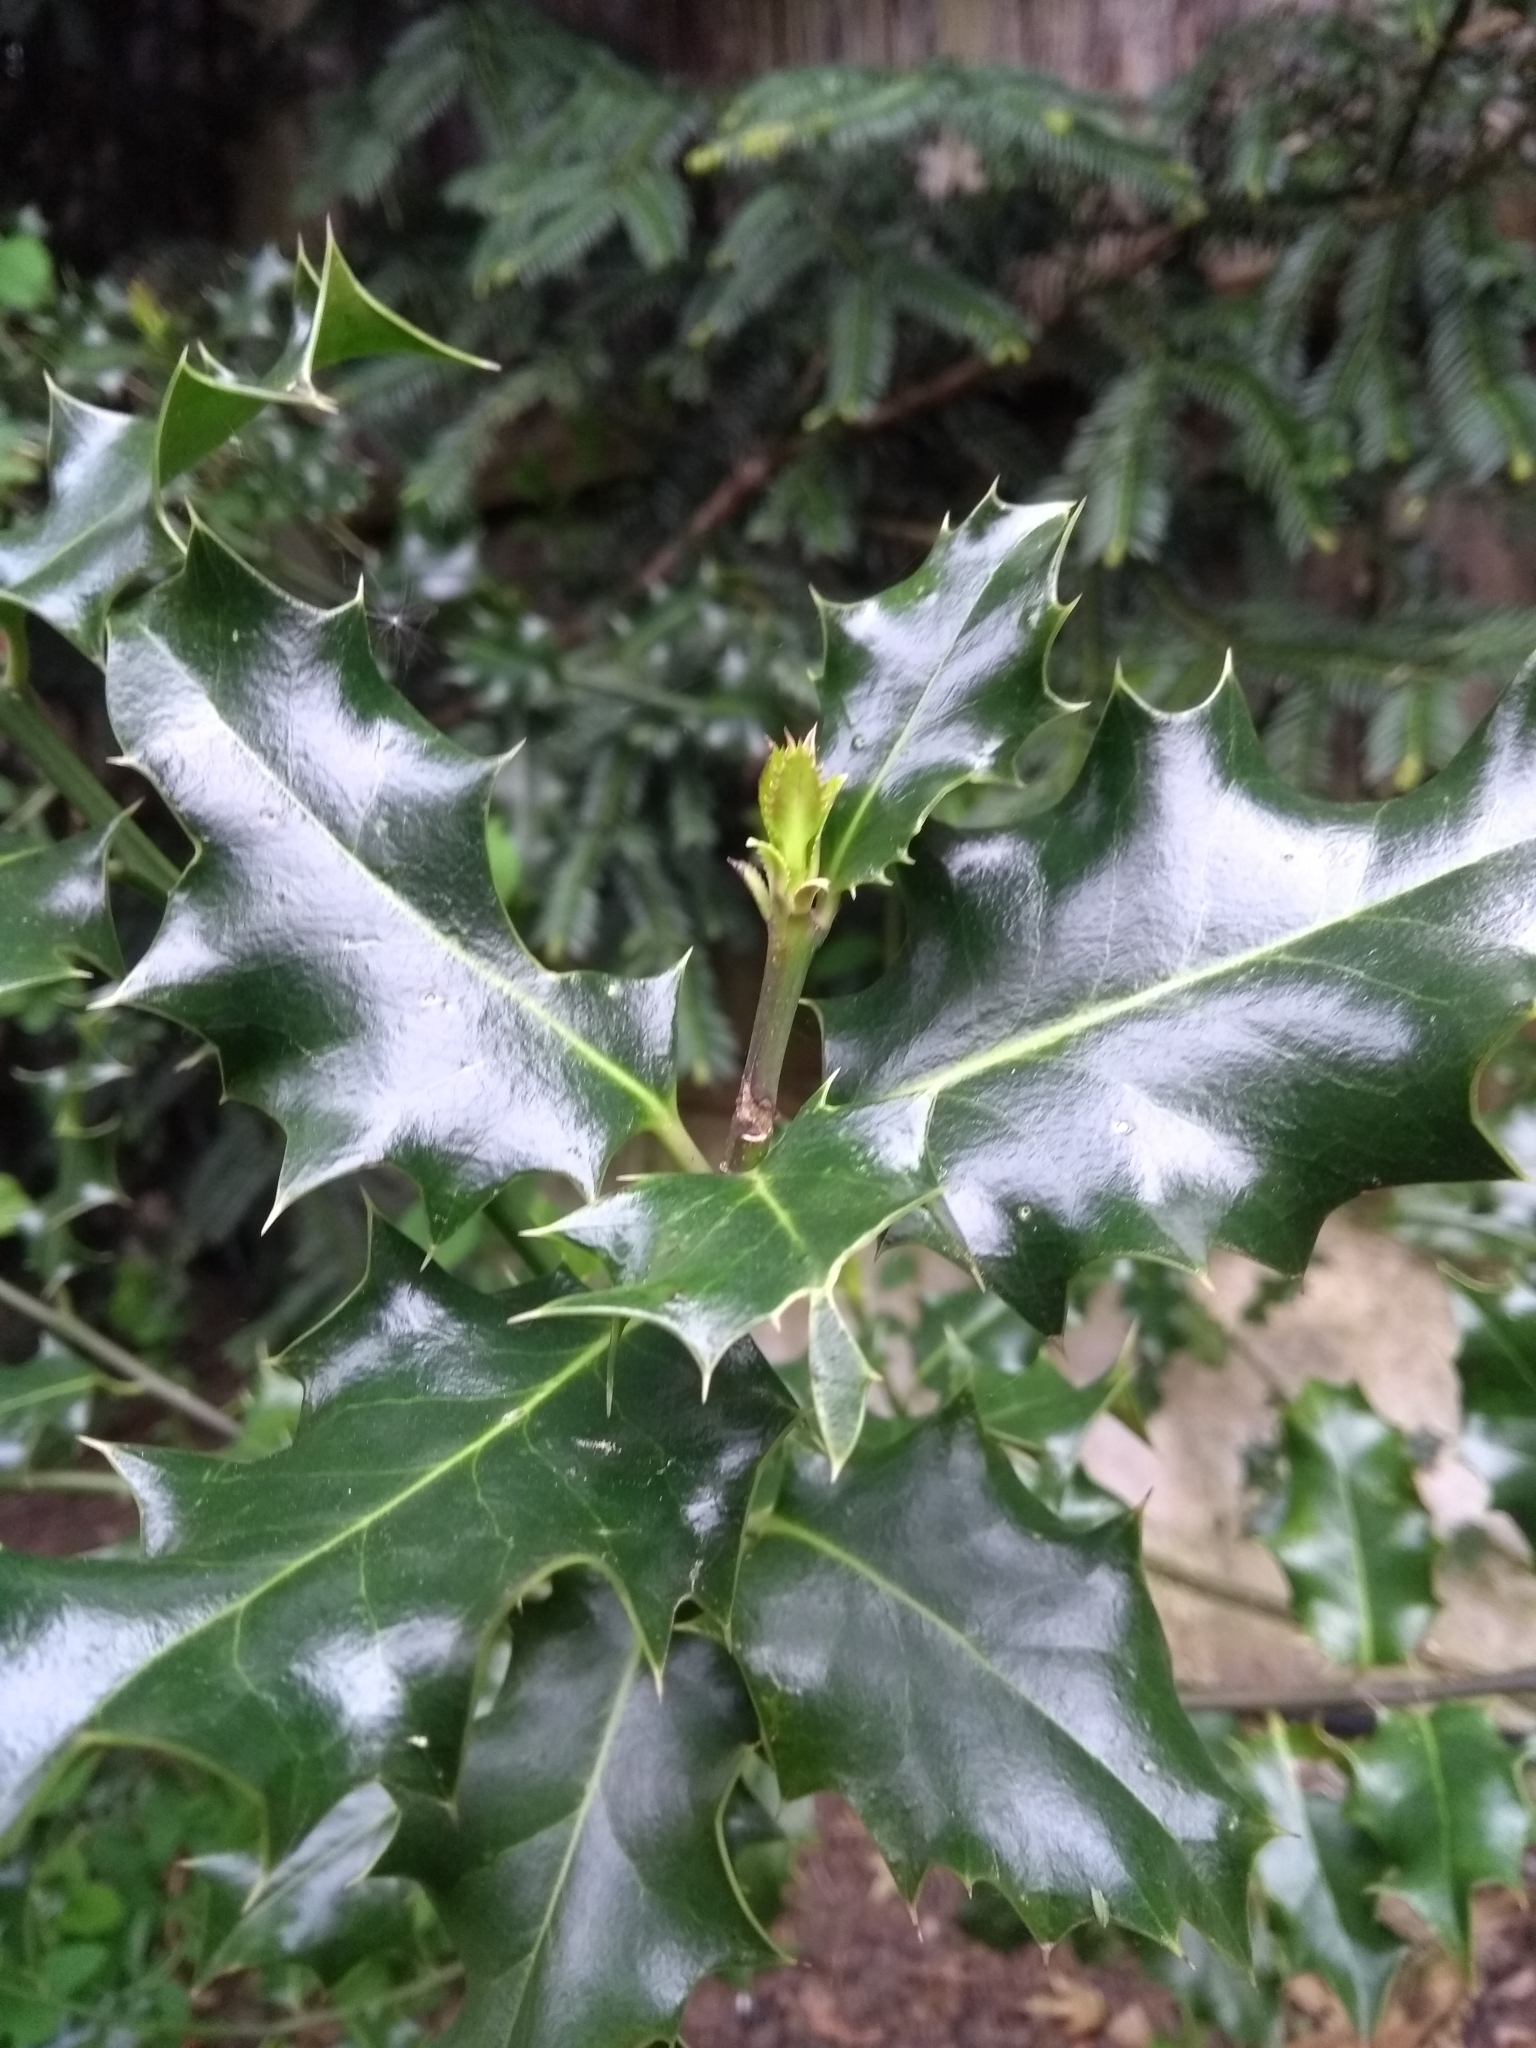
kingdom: Plantae
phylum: Tracheophyta
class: Magnoliopsida
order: Aquifoliales
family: Aquifoliaceae
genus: Ilex
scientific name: Ilex aquifolium
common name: English holly
